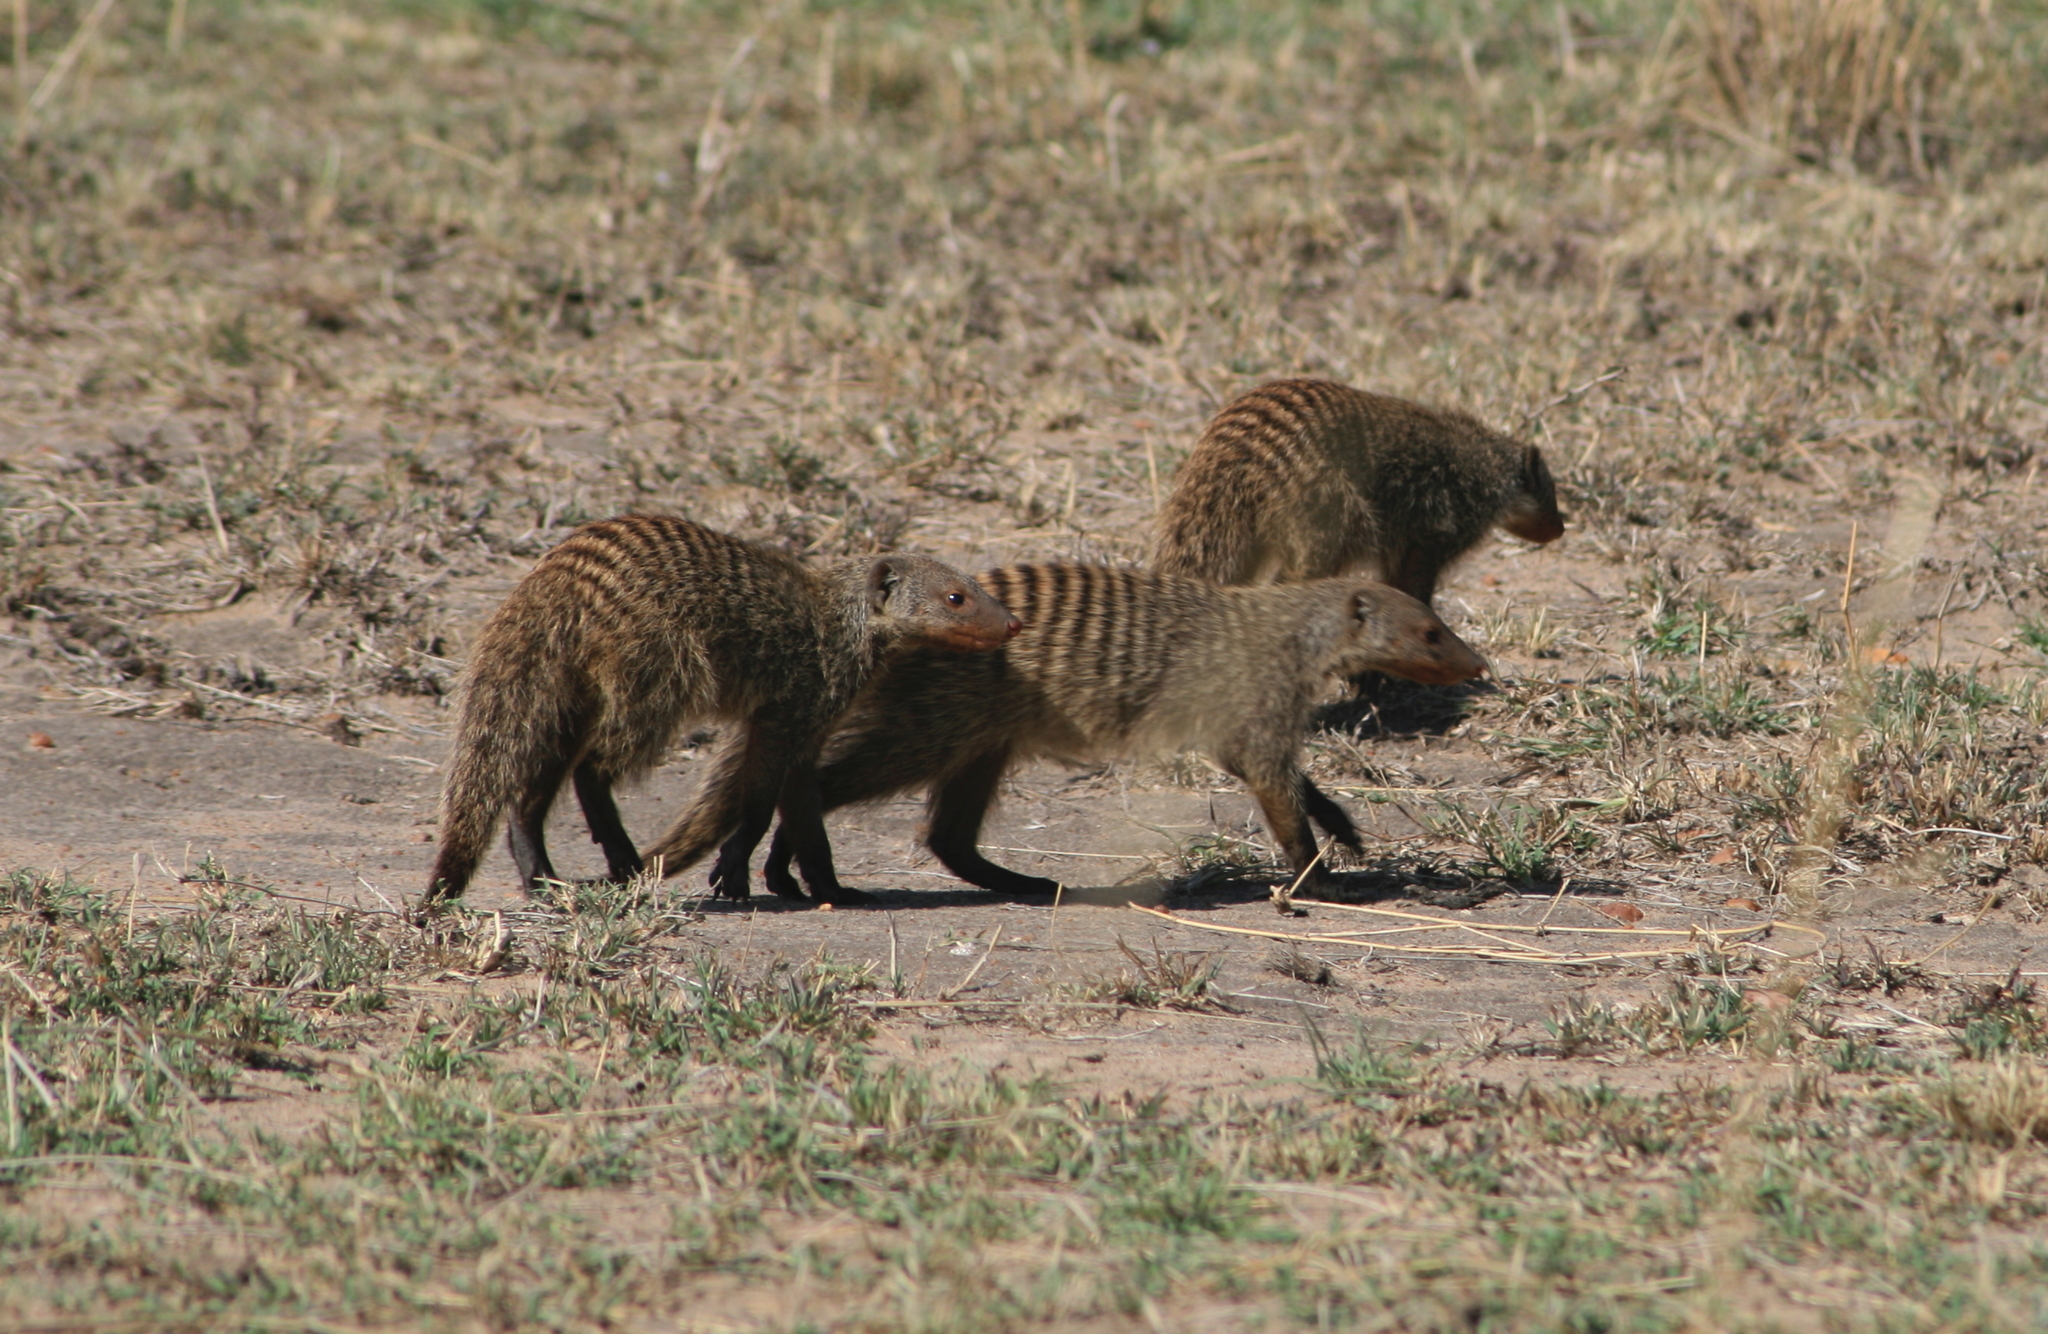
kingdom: Animalia
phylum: Chordata
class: Mammalia
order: Carnivora
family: Herpestidae
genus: Mungos
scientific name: Mungos mungo
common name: Banded mongoose
